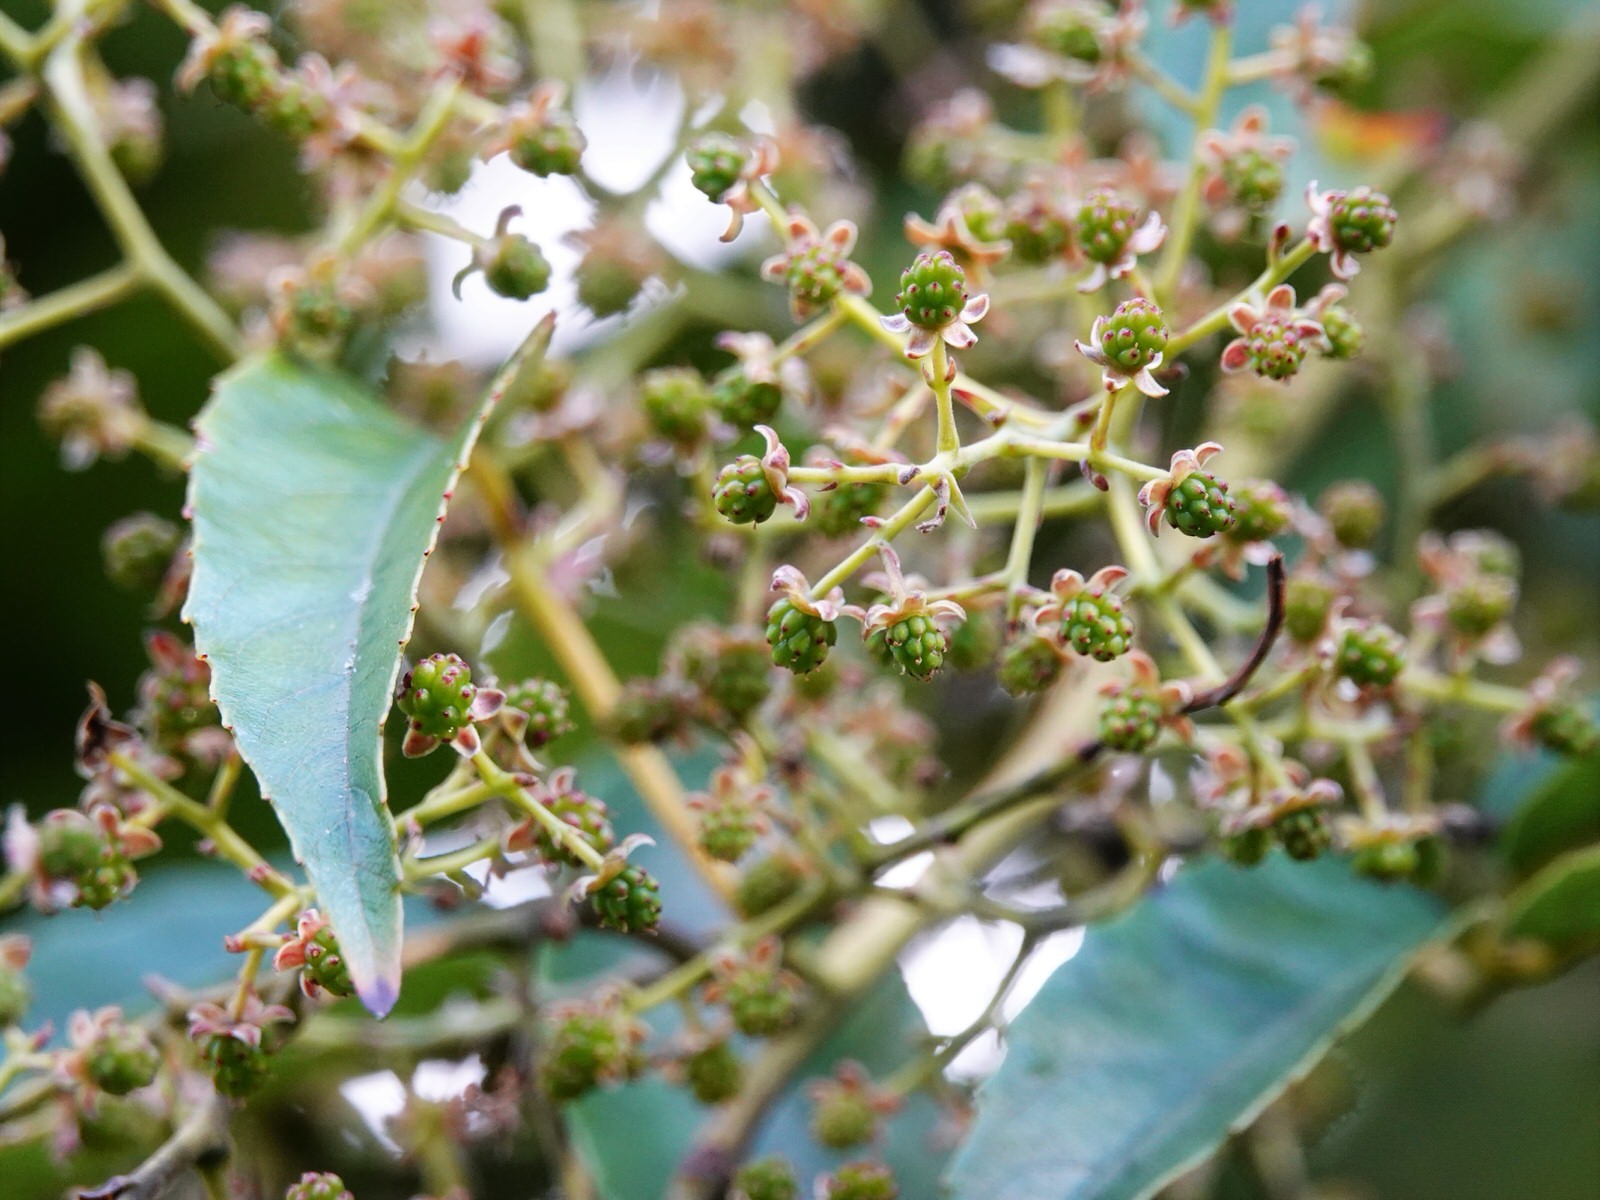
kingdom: Plantae
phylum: Tracheophyta
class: Magnoliopsida
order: Rosales
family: Rosaceae
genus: Rubus
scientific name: Rubus cissoides
